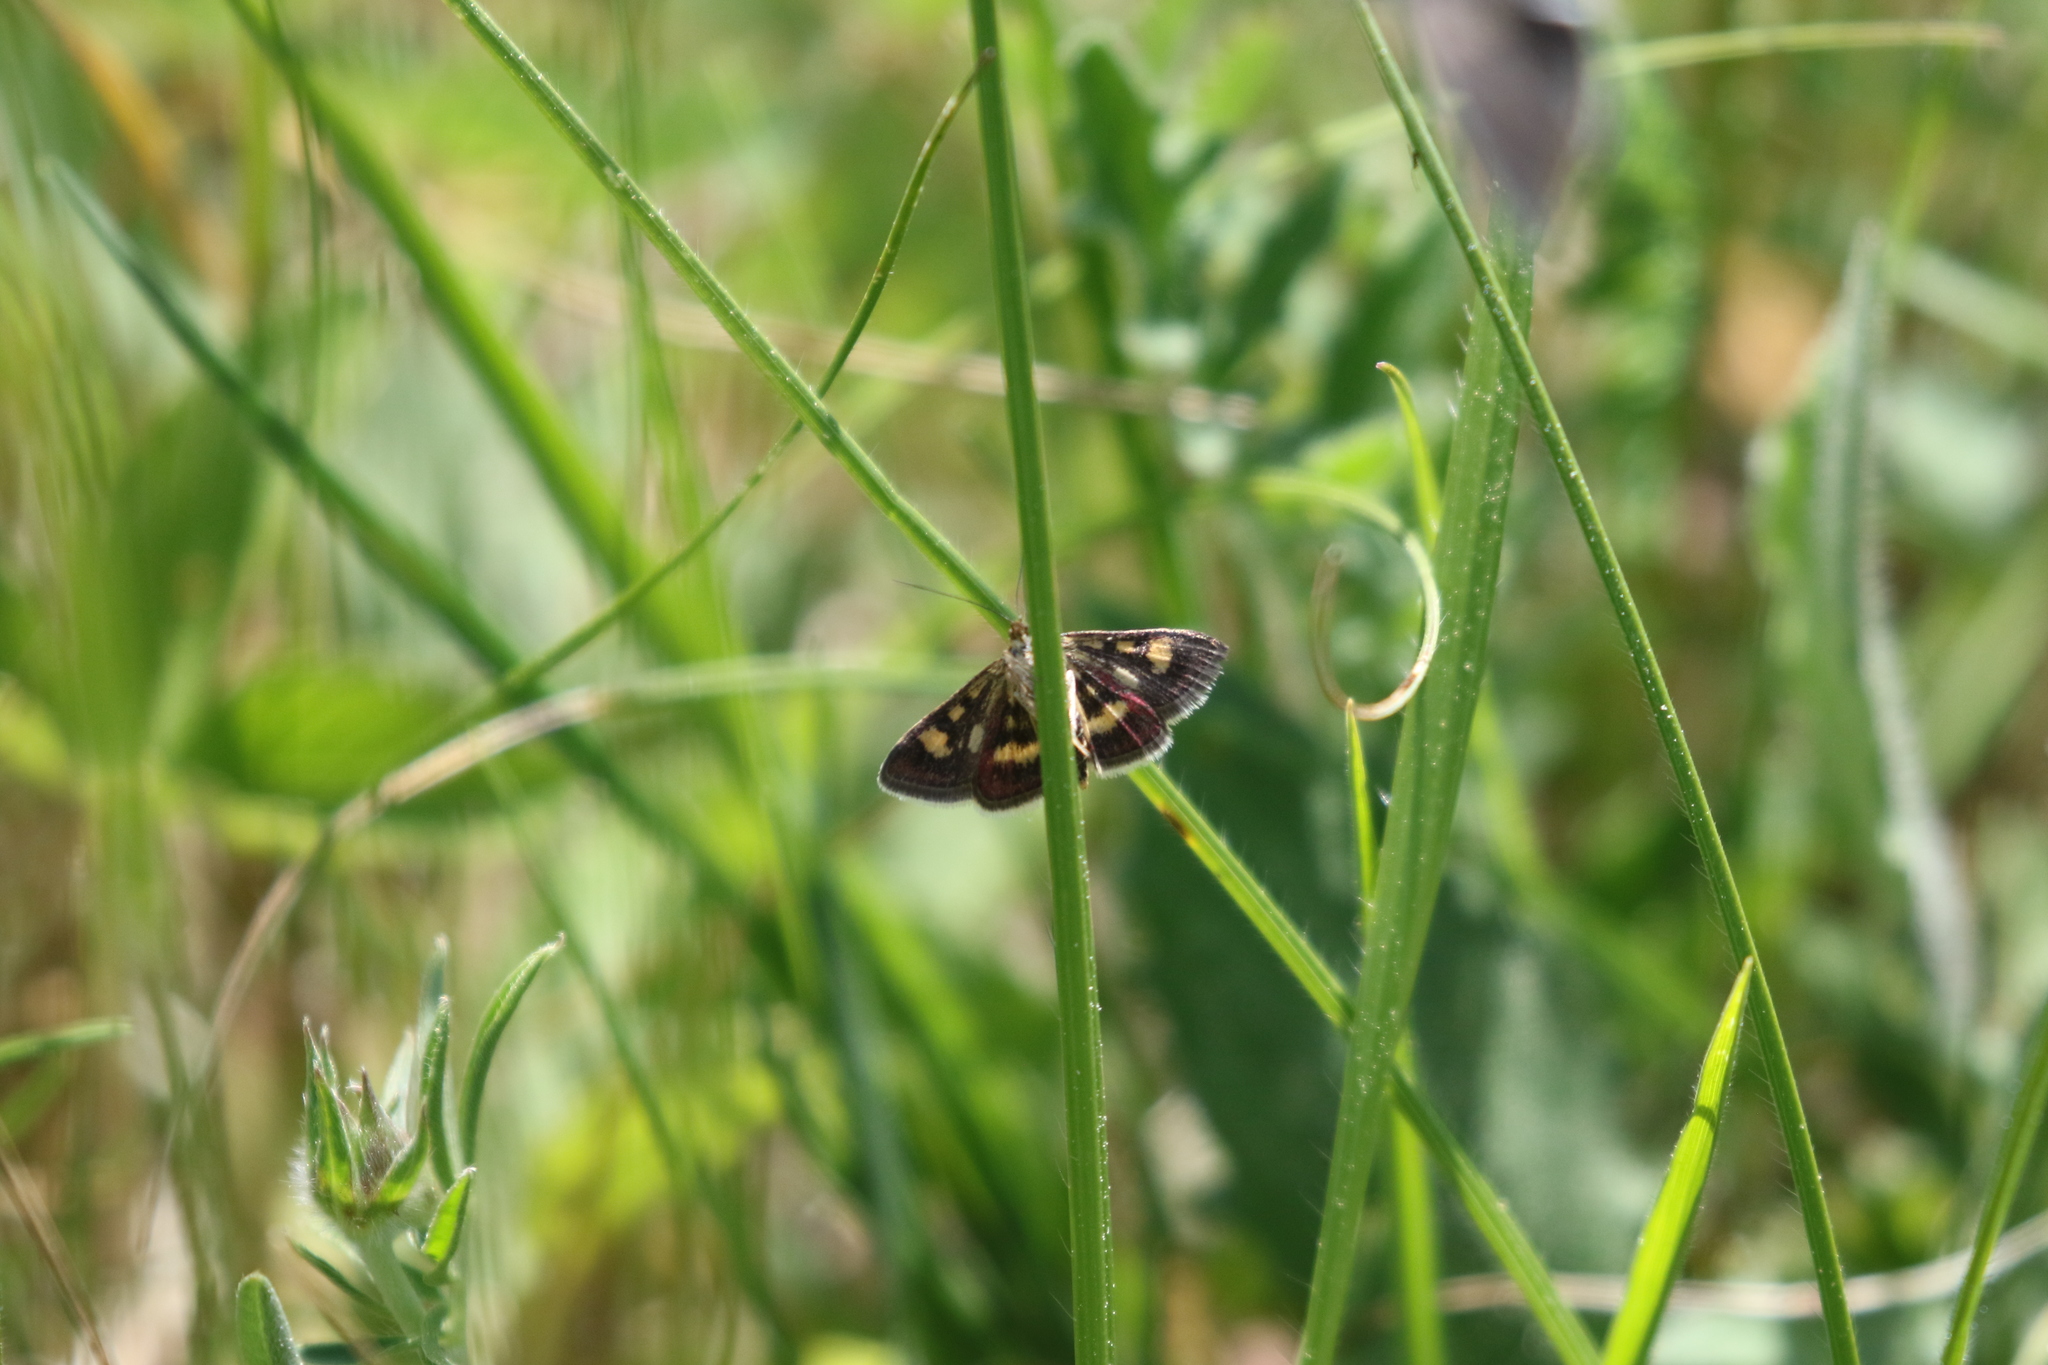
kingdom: Animalia
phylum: Arthropoda
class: Insecta
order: Lepidoptera
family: Crambidae
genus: Pyrausta
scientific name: Pyrausta aurata
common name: Small purple & gold
